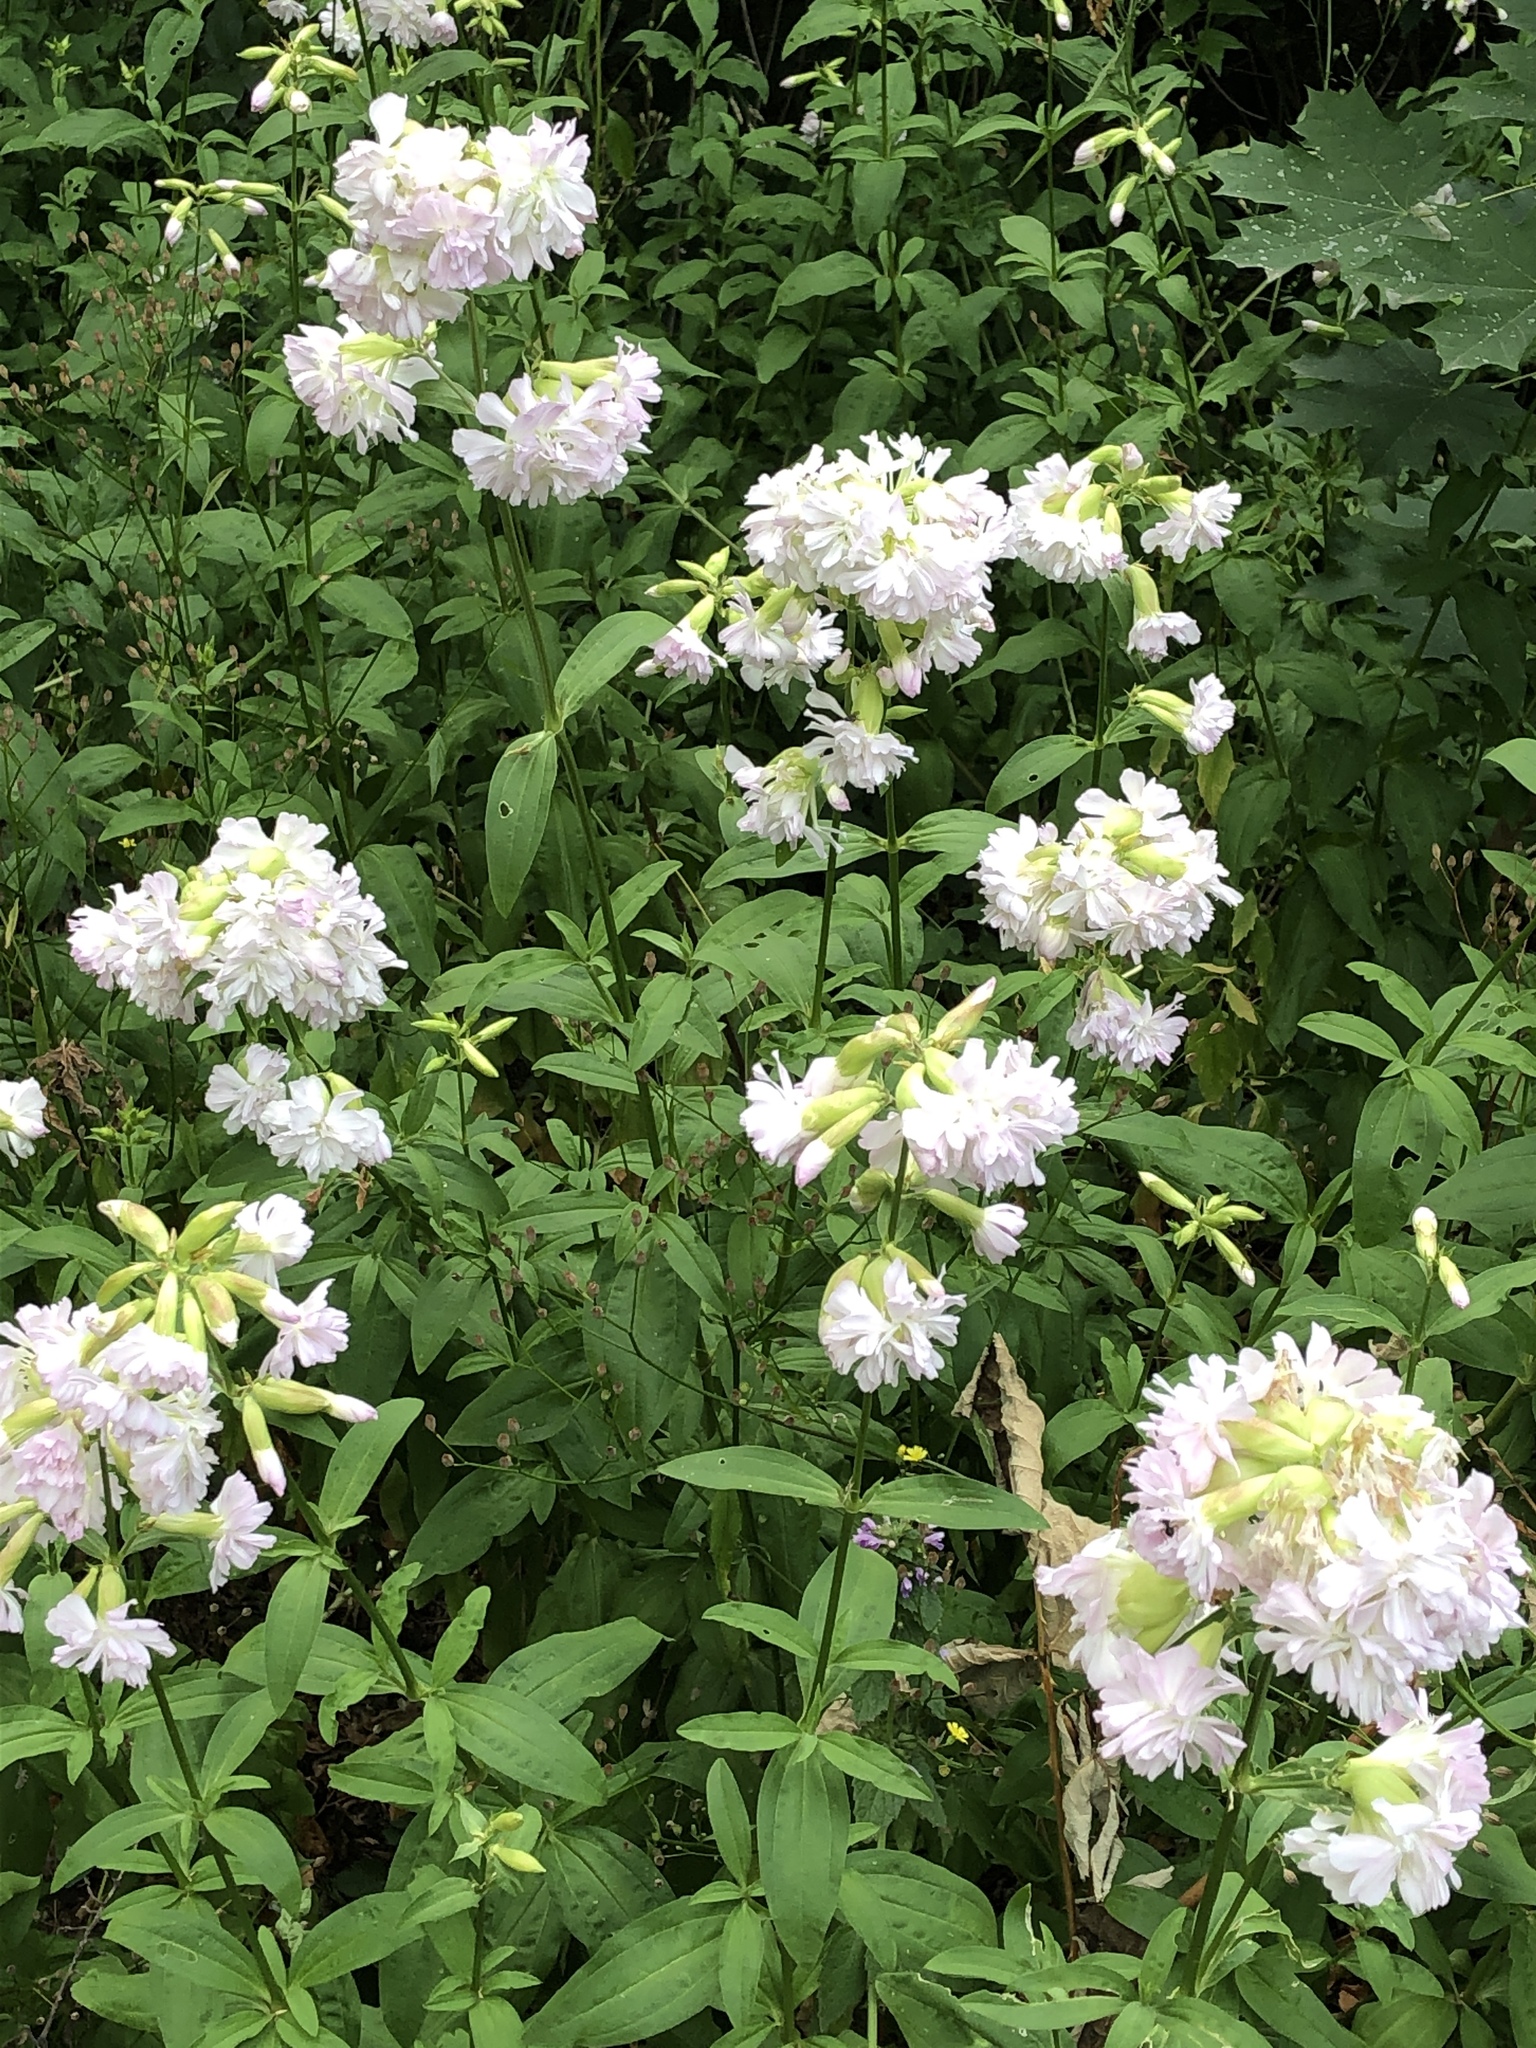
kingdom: Plantae
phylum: Tracheophyta
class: Magnoliopsida
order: Caryophyllales
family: Caryophyllaceae
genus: Saponaria
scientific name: Saponaria officinalis
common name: Soapwort
